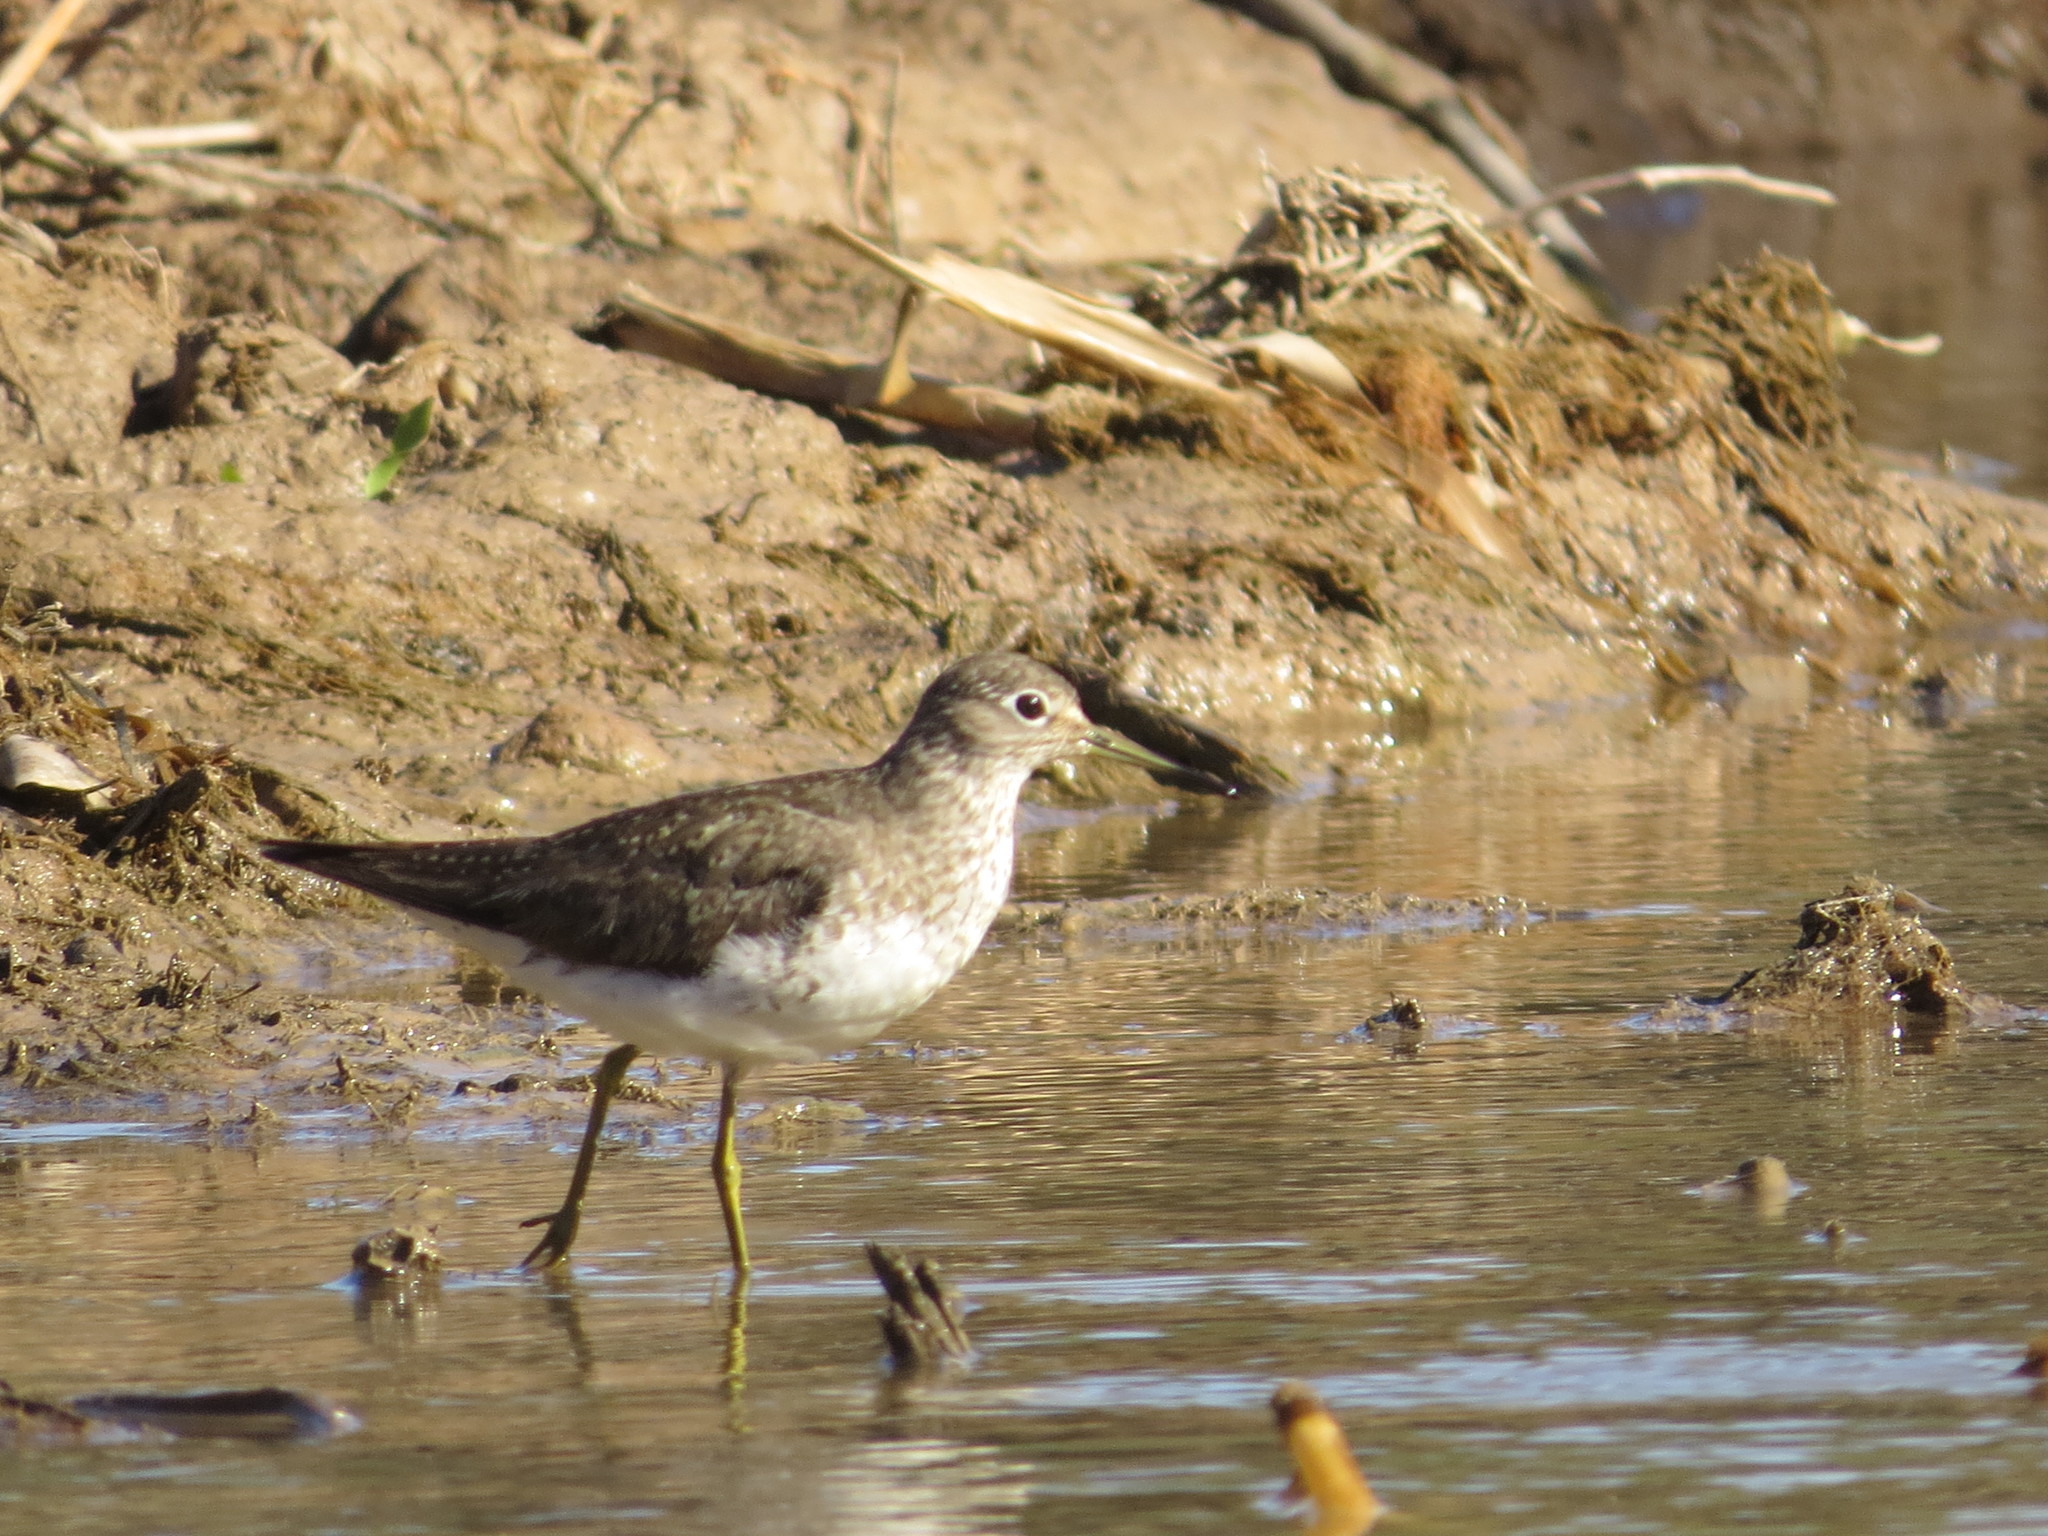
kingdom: Animalia
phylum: Chordata
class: Aves
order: Charadriiformes
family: Scolopacidae
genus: Tringa
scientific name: Tringa solitaria
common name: Solitary sandpiper
